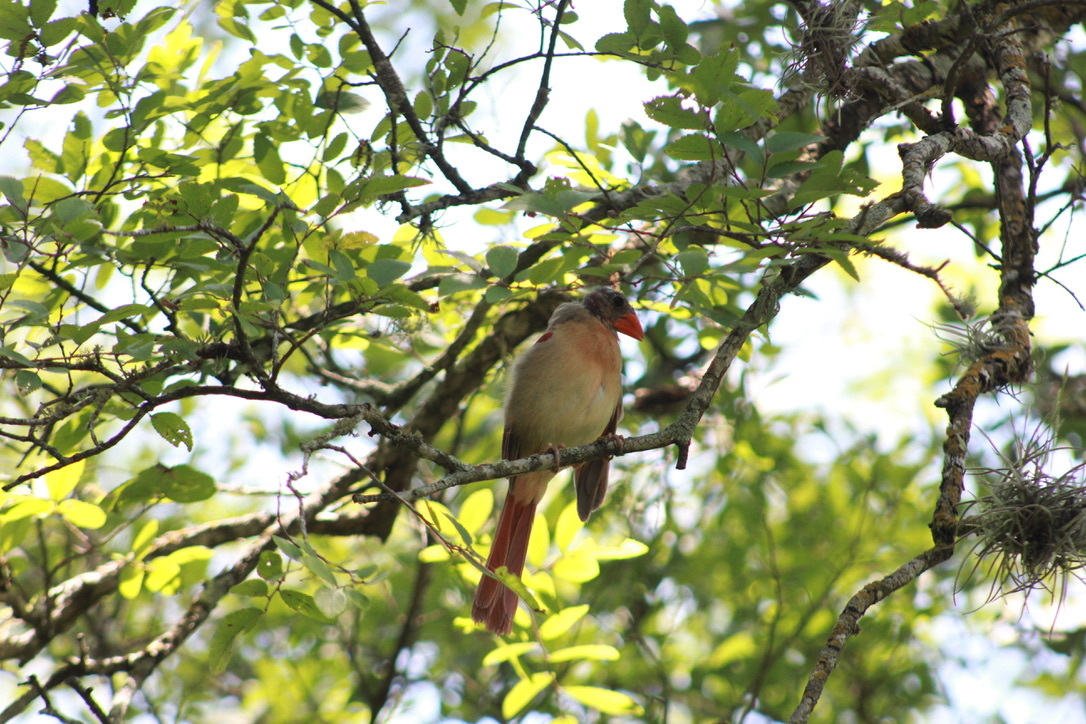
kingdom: Animalia
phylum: Chordata
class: Aves
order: Passeriformes
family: Cardinalidae
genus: Cardinalis
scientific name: Cardinalis cardinalis
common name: Northern cardinal
